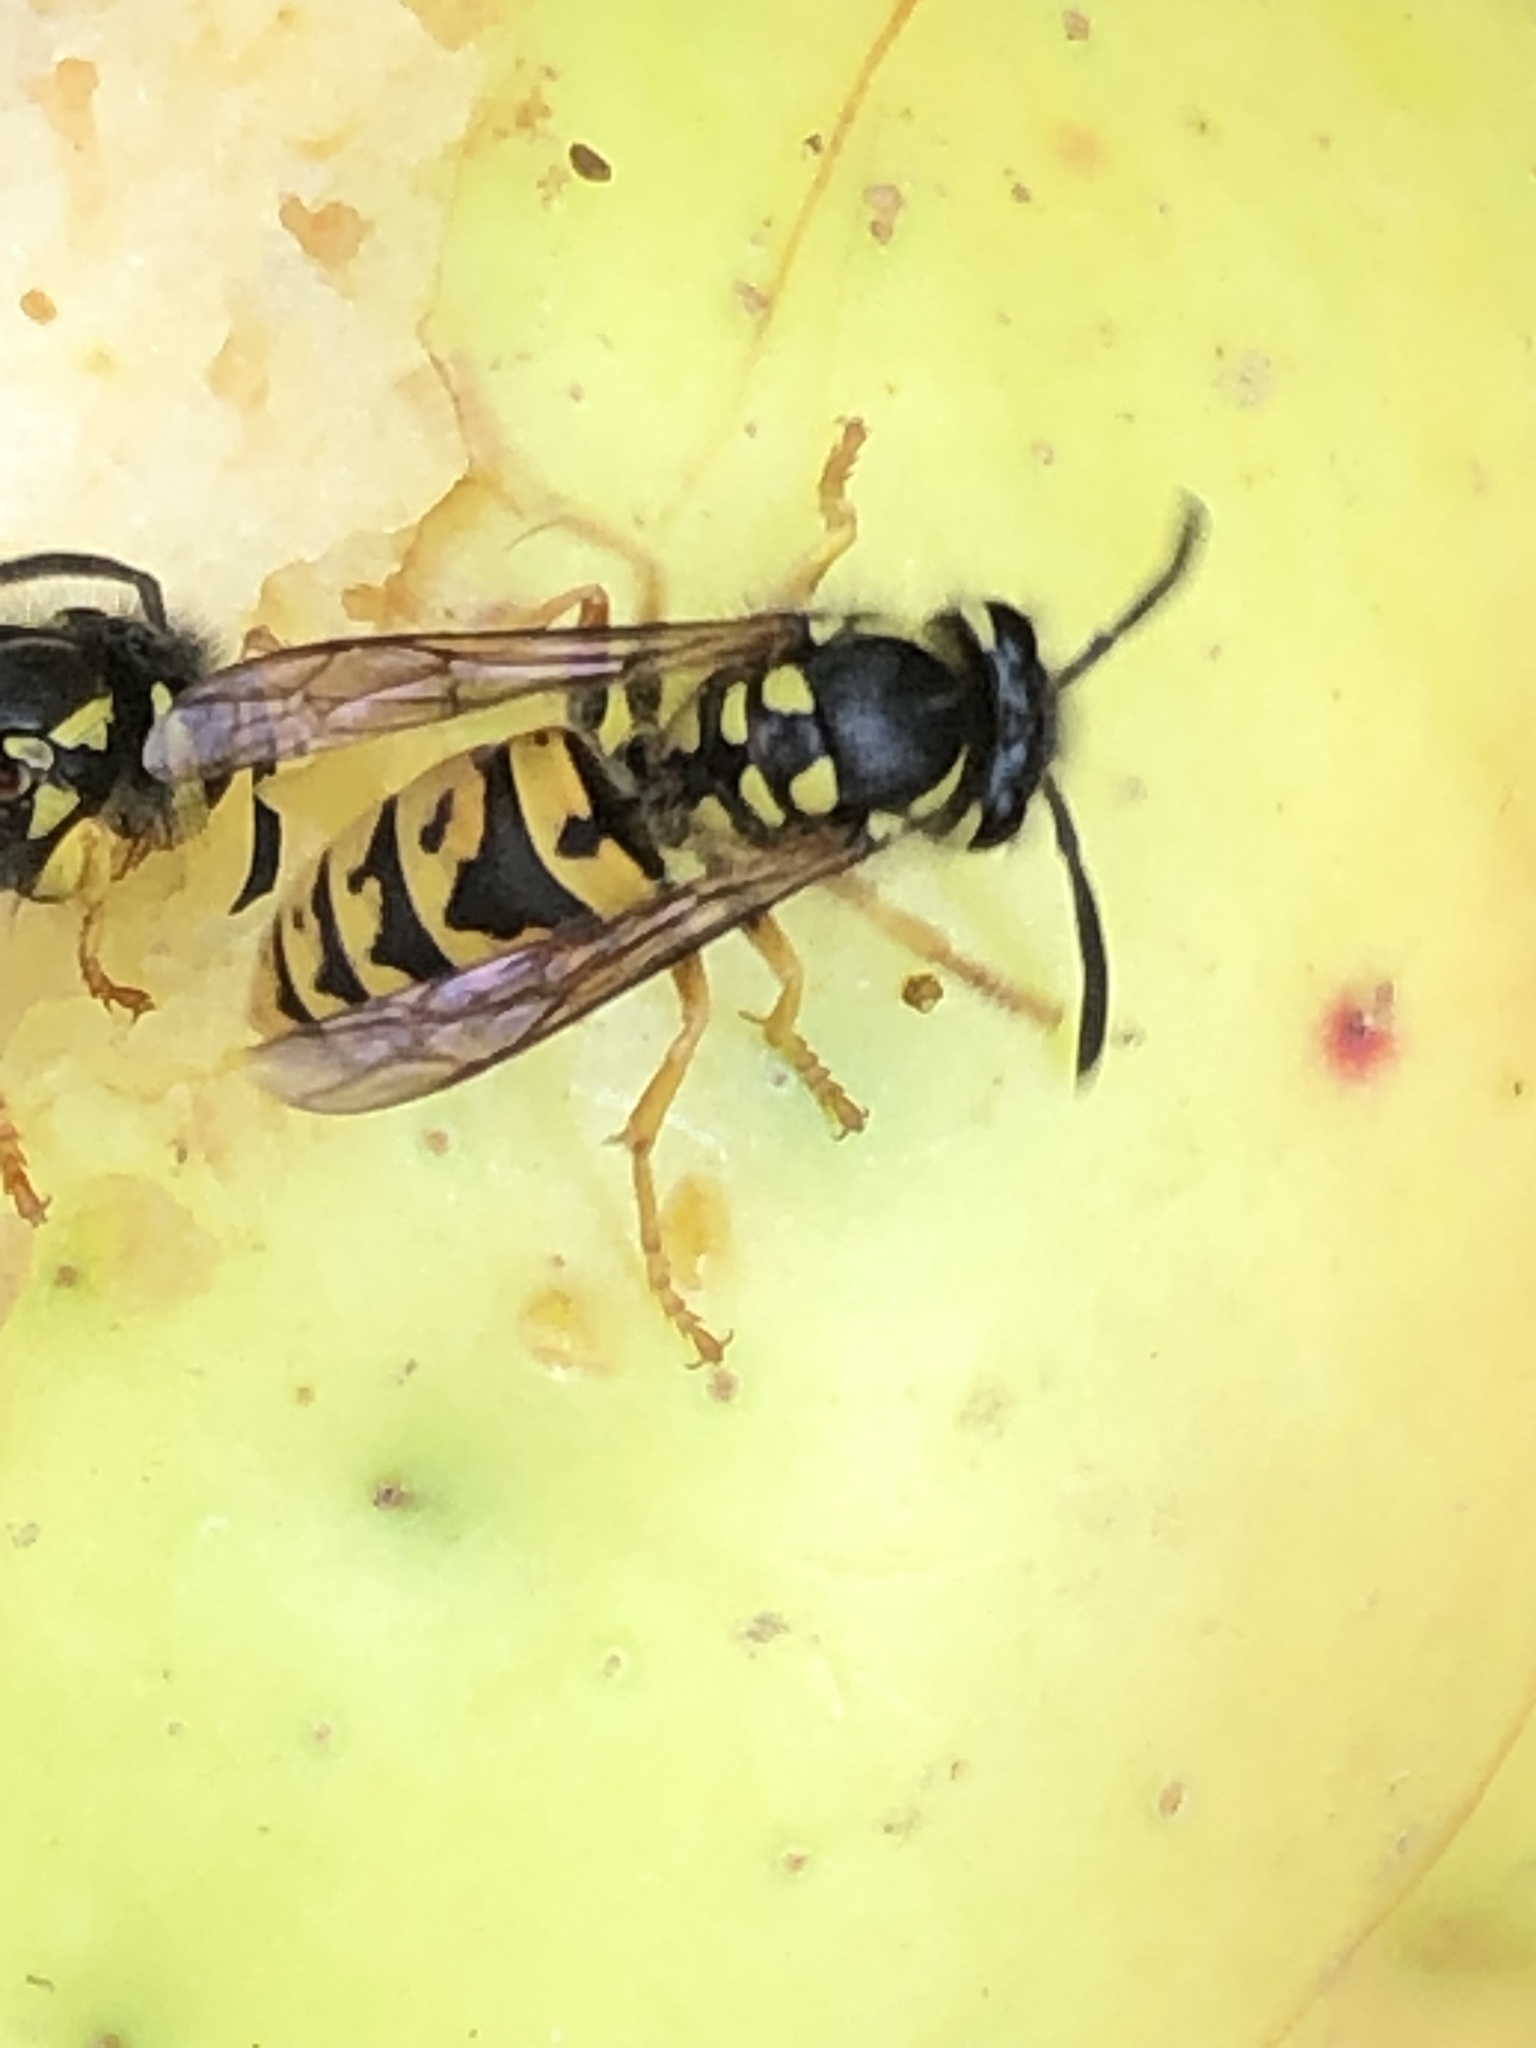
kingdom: Animalia
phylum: Arthropoda
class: Insecta
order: Hymenoptera
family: Vespidae
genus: Vespula
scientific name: Vespula germanica
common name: German wasp
